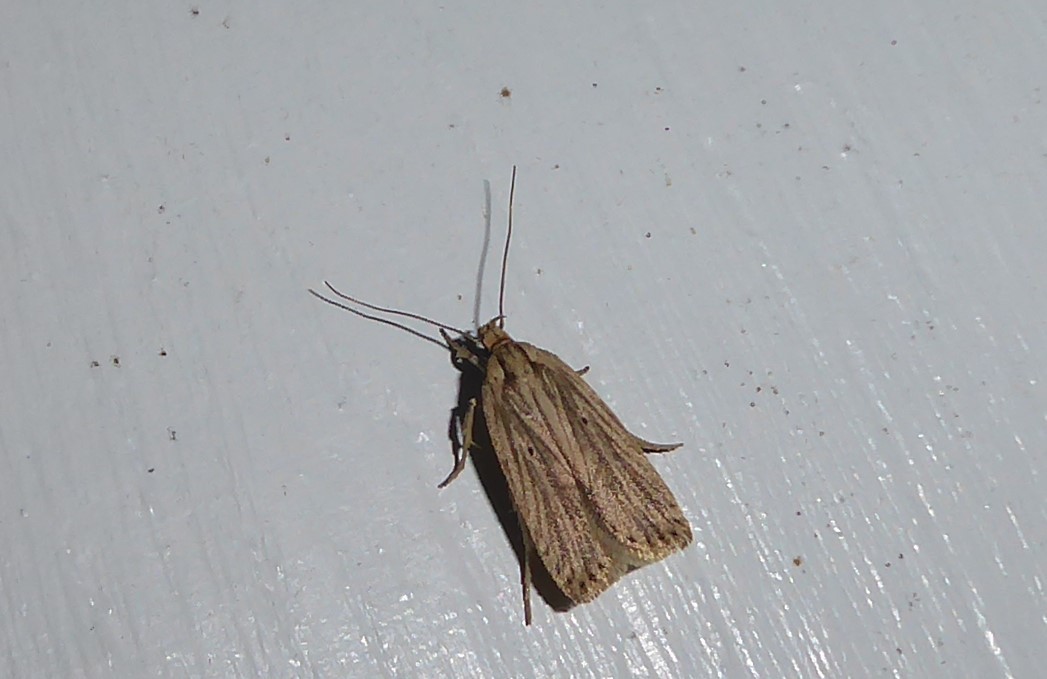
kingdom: Animalia
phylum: Arthropoda
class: Insecta
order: Lepidoptera
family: Depressariidae
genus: Agonopterix
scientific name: Agonopterix
